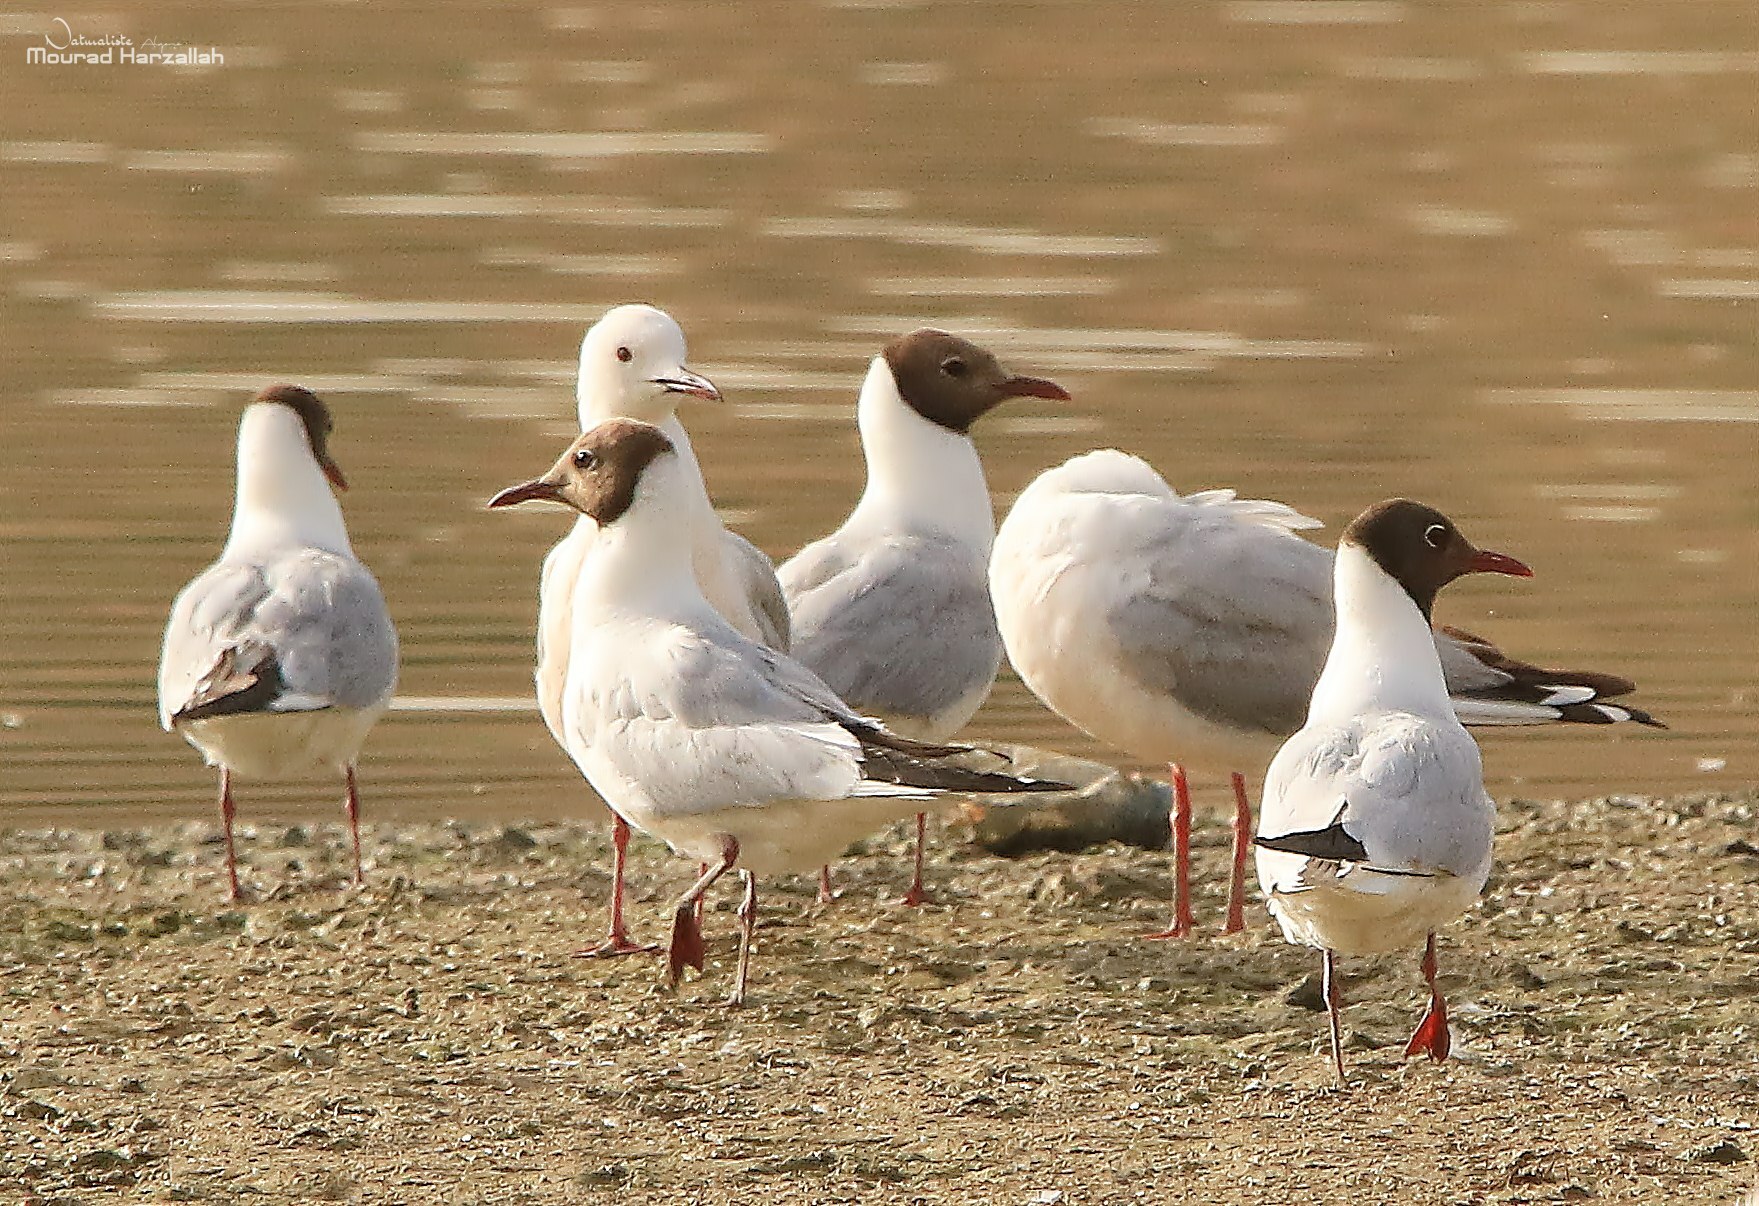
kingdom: Animalia
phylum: Chordata
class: Aves
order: Charadriiformes
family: Laridae
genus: Chroicocephalus
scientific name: Chroicocephalus ridibundus
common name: Black-headed gull
